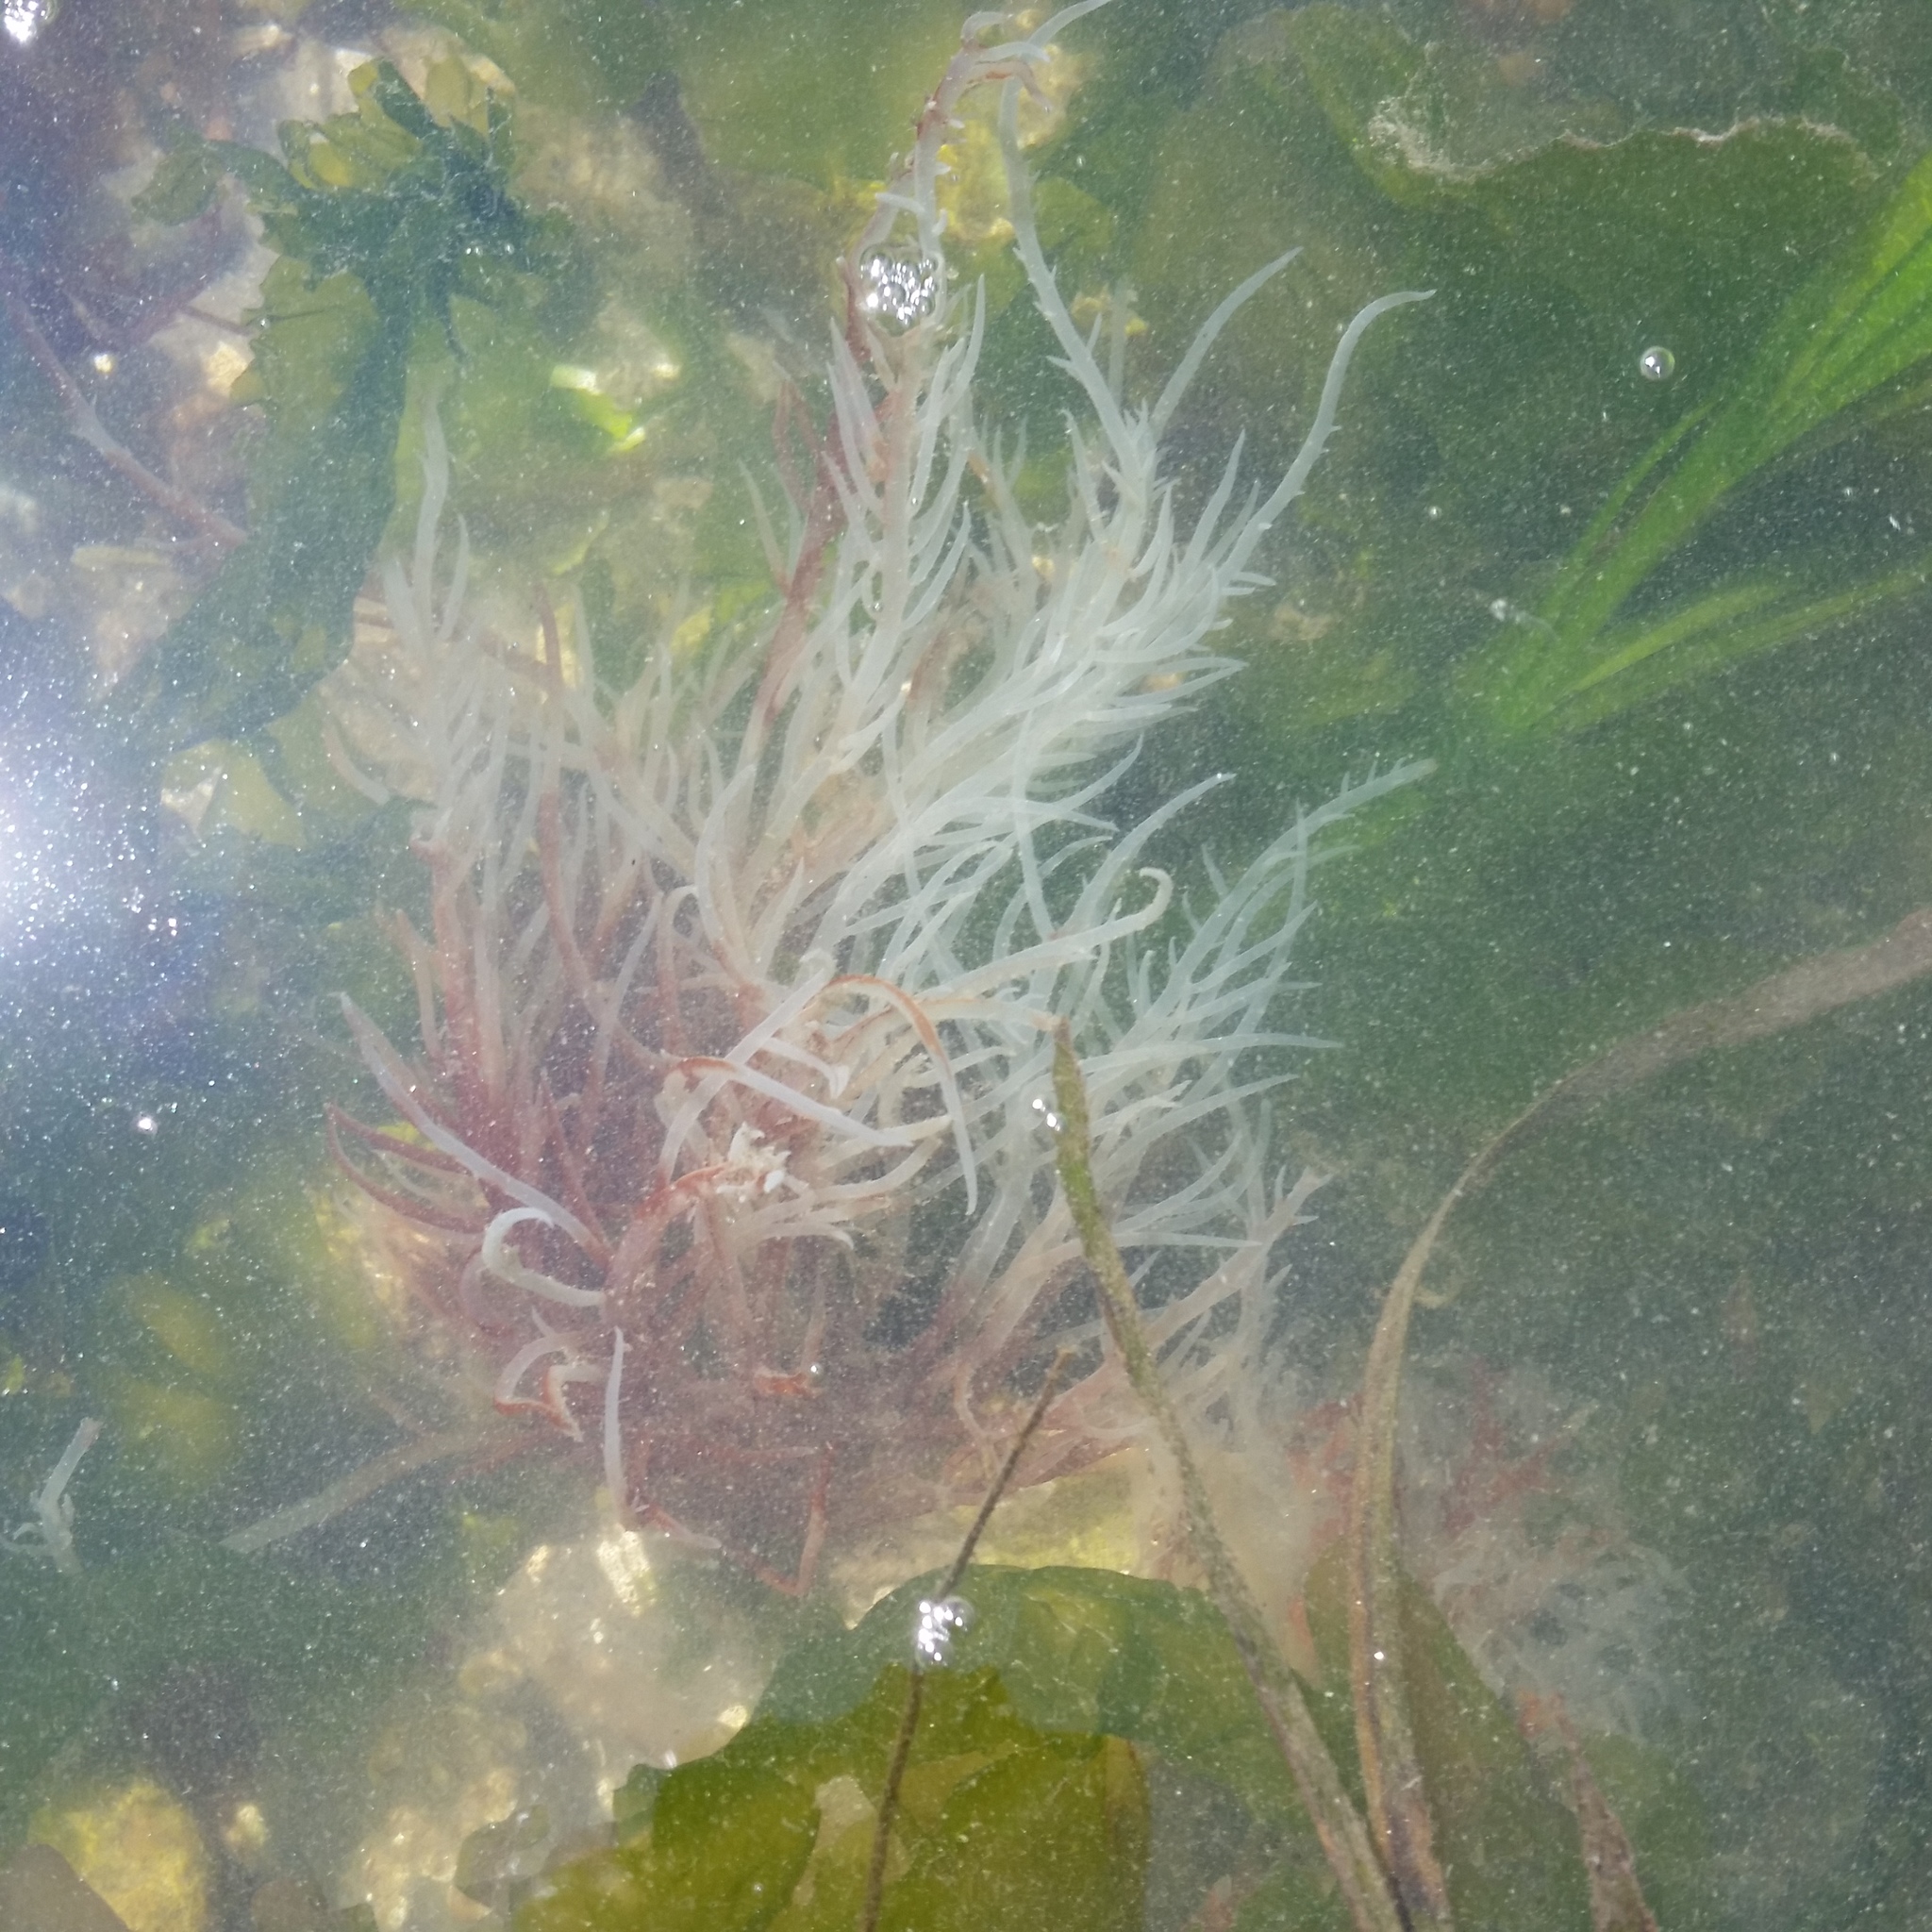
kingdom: Plantae
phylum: Rhodophyta
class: Florideophyceae
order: Gigartinales
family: Solieriaceae
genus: Sarcodiotheca
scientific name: Sarcodiotheca gaudichaudii
